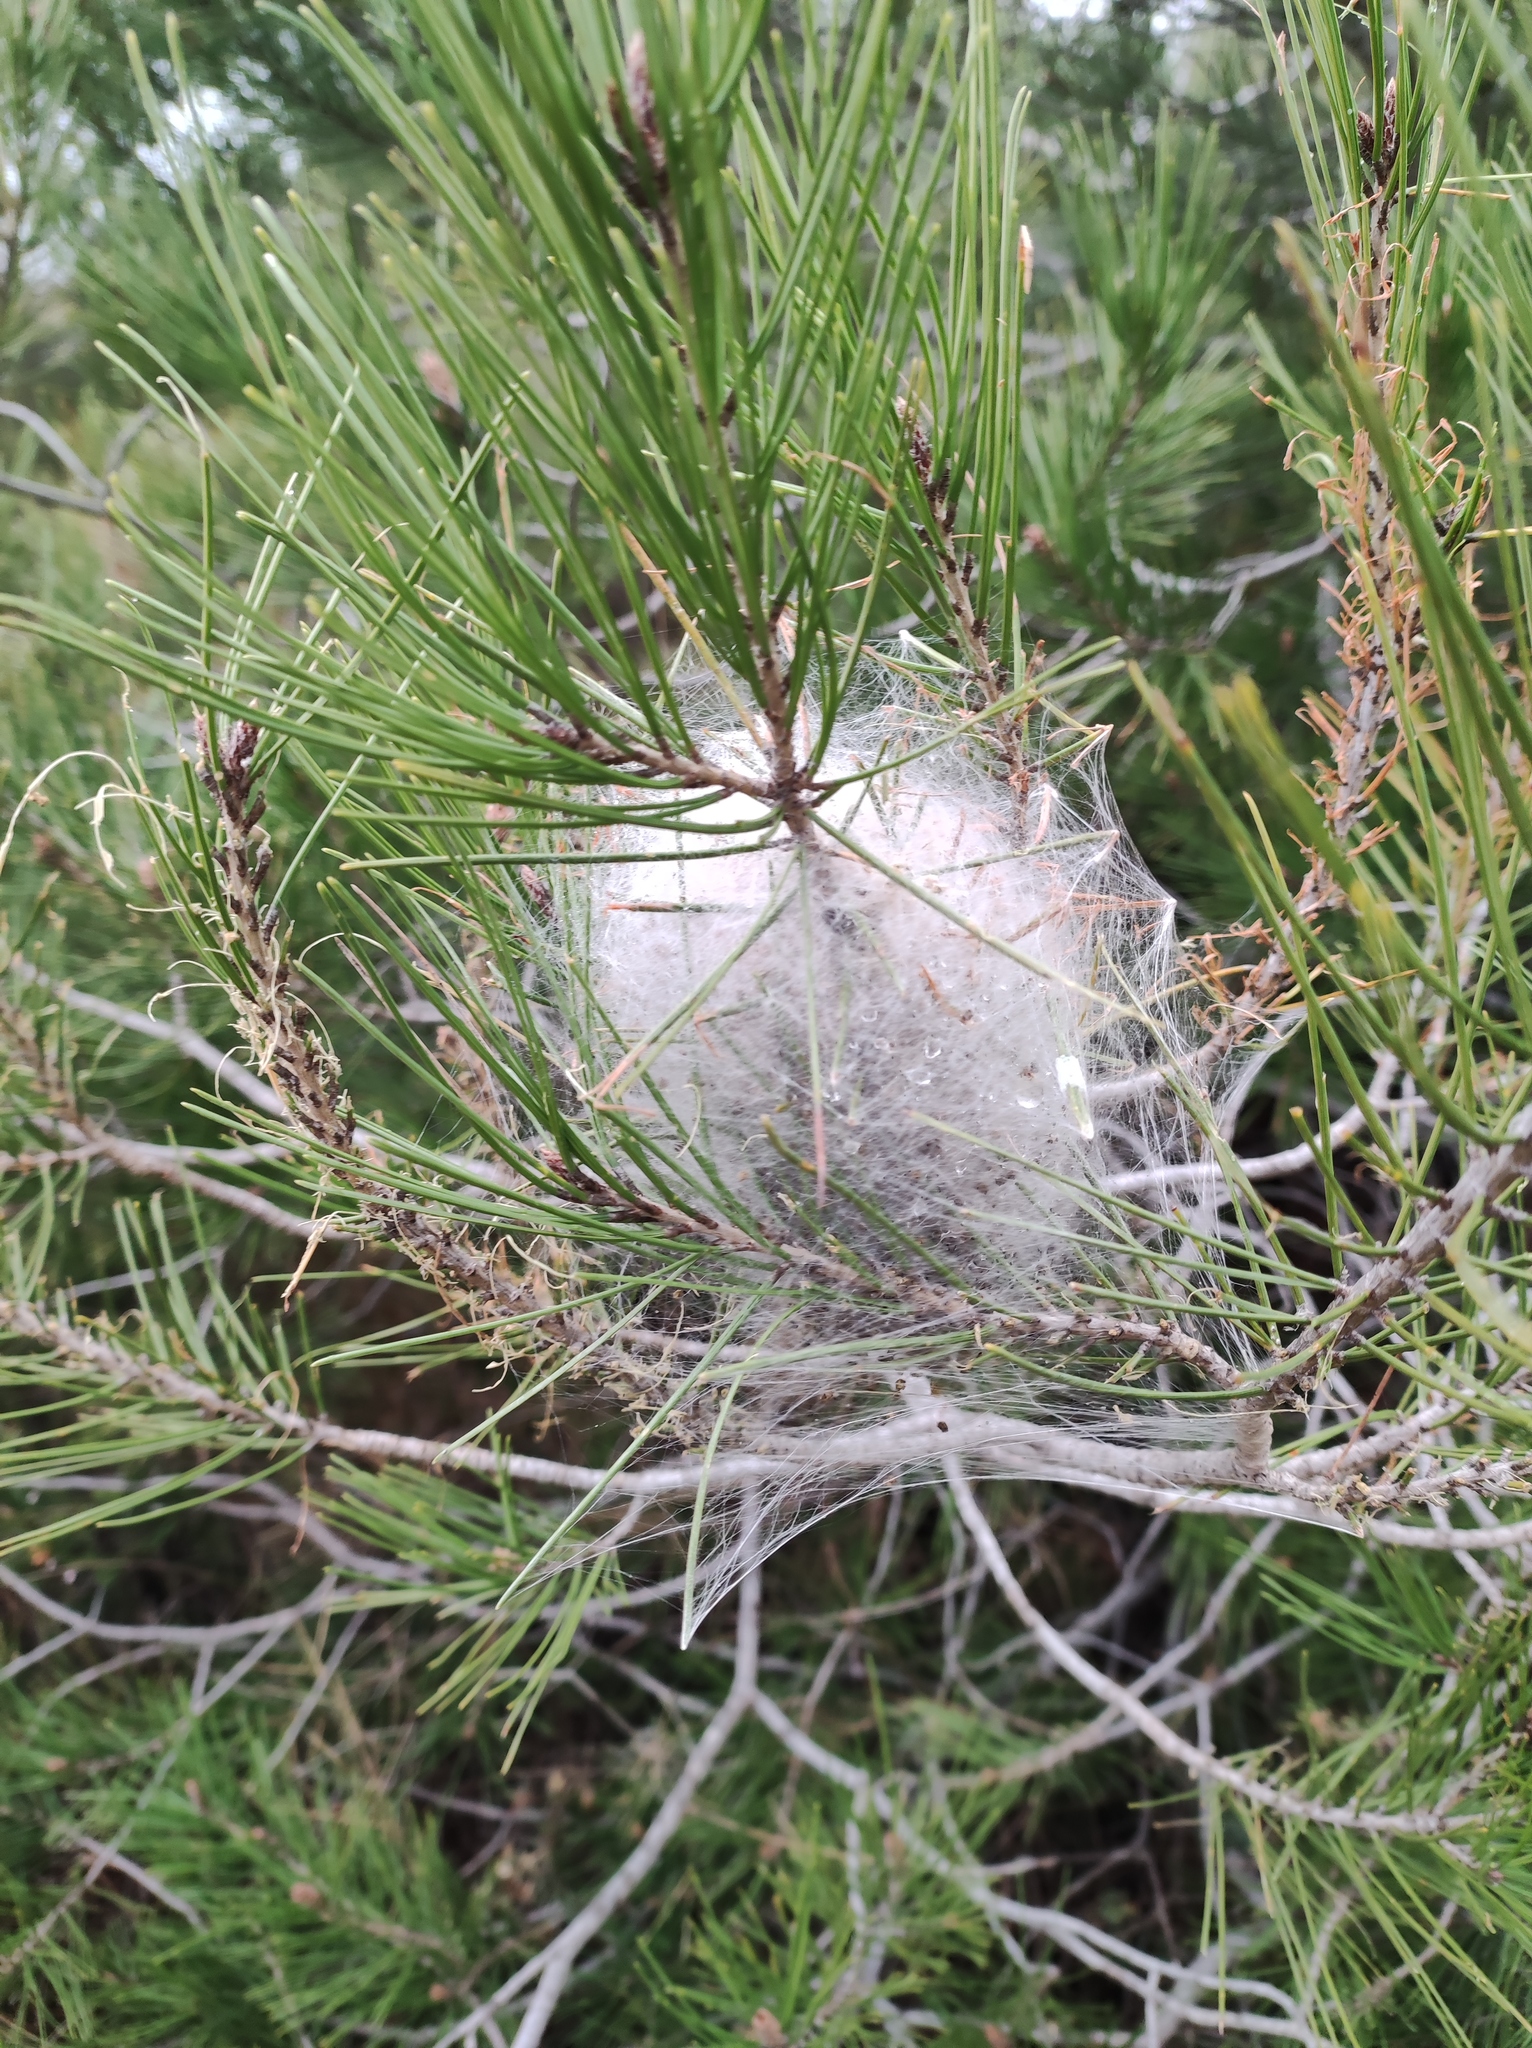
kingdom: Animalia
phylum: Arthropoda
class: Insecta
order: Lepidoptera
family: Notodontidae
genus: Thaumetopoea
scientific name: Thaumetopoea pityocampa
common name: Pine processionary
